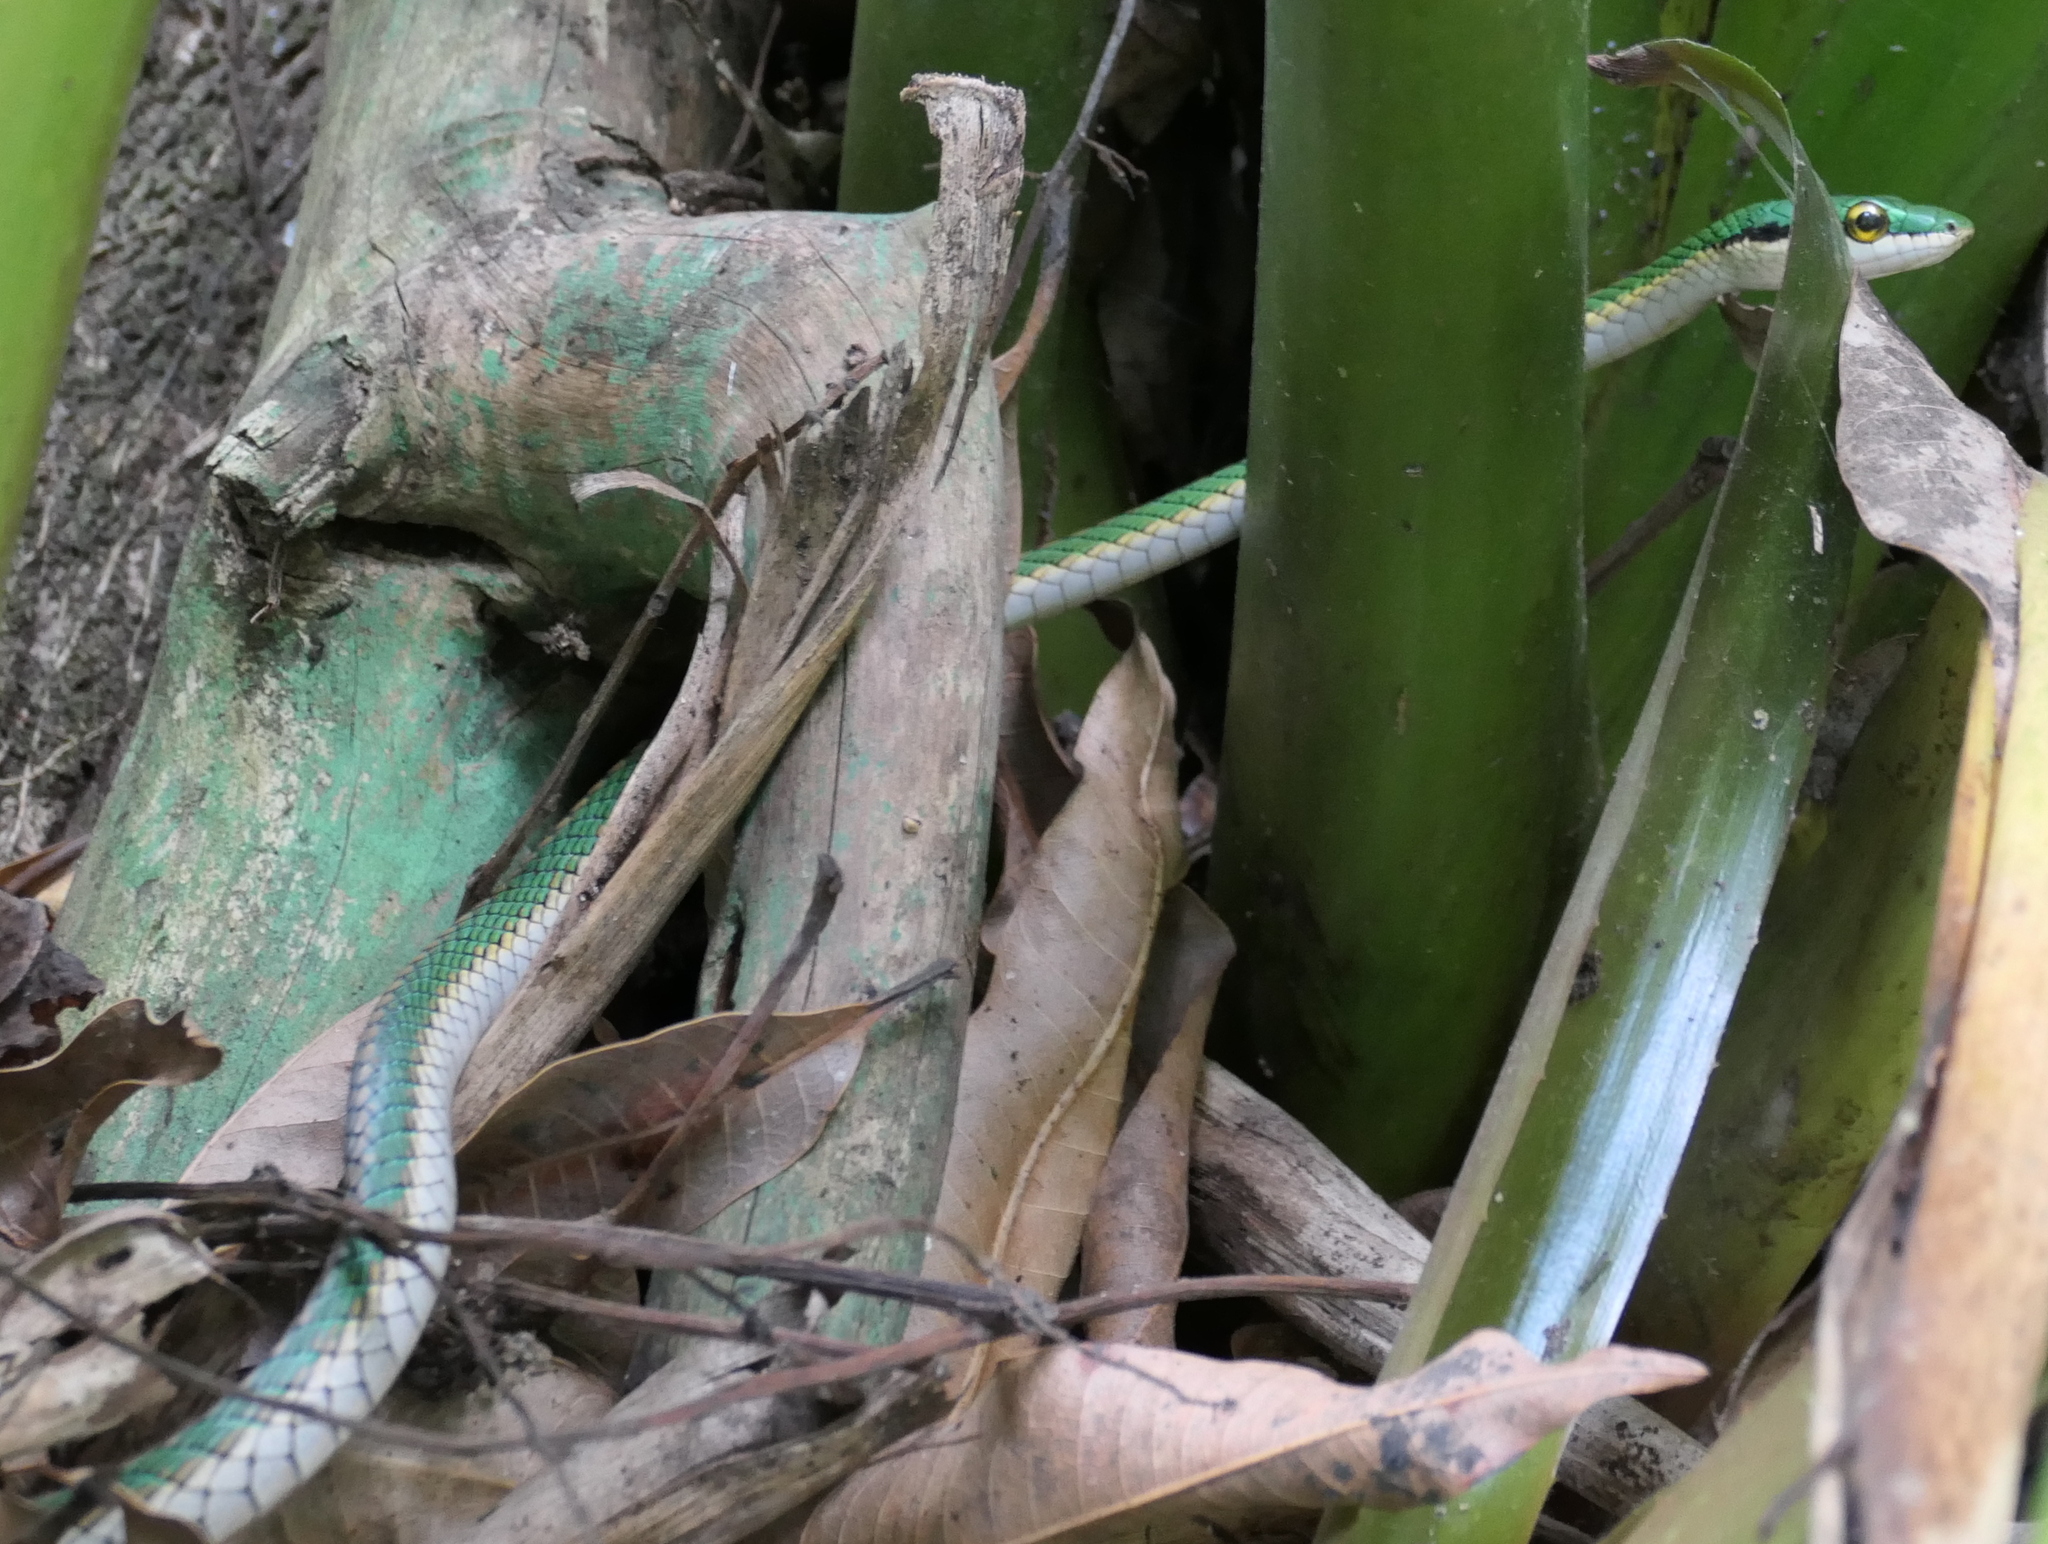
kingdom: Animalia
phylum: Chordata
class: Squamata
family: Colubridae
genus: Leptophis
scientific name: Leptophis ahaetulla
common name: Parrot snake
